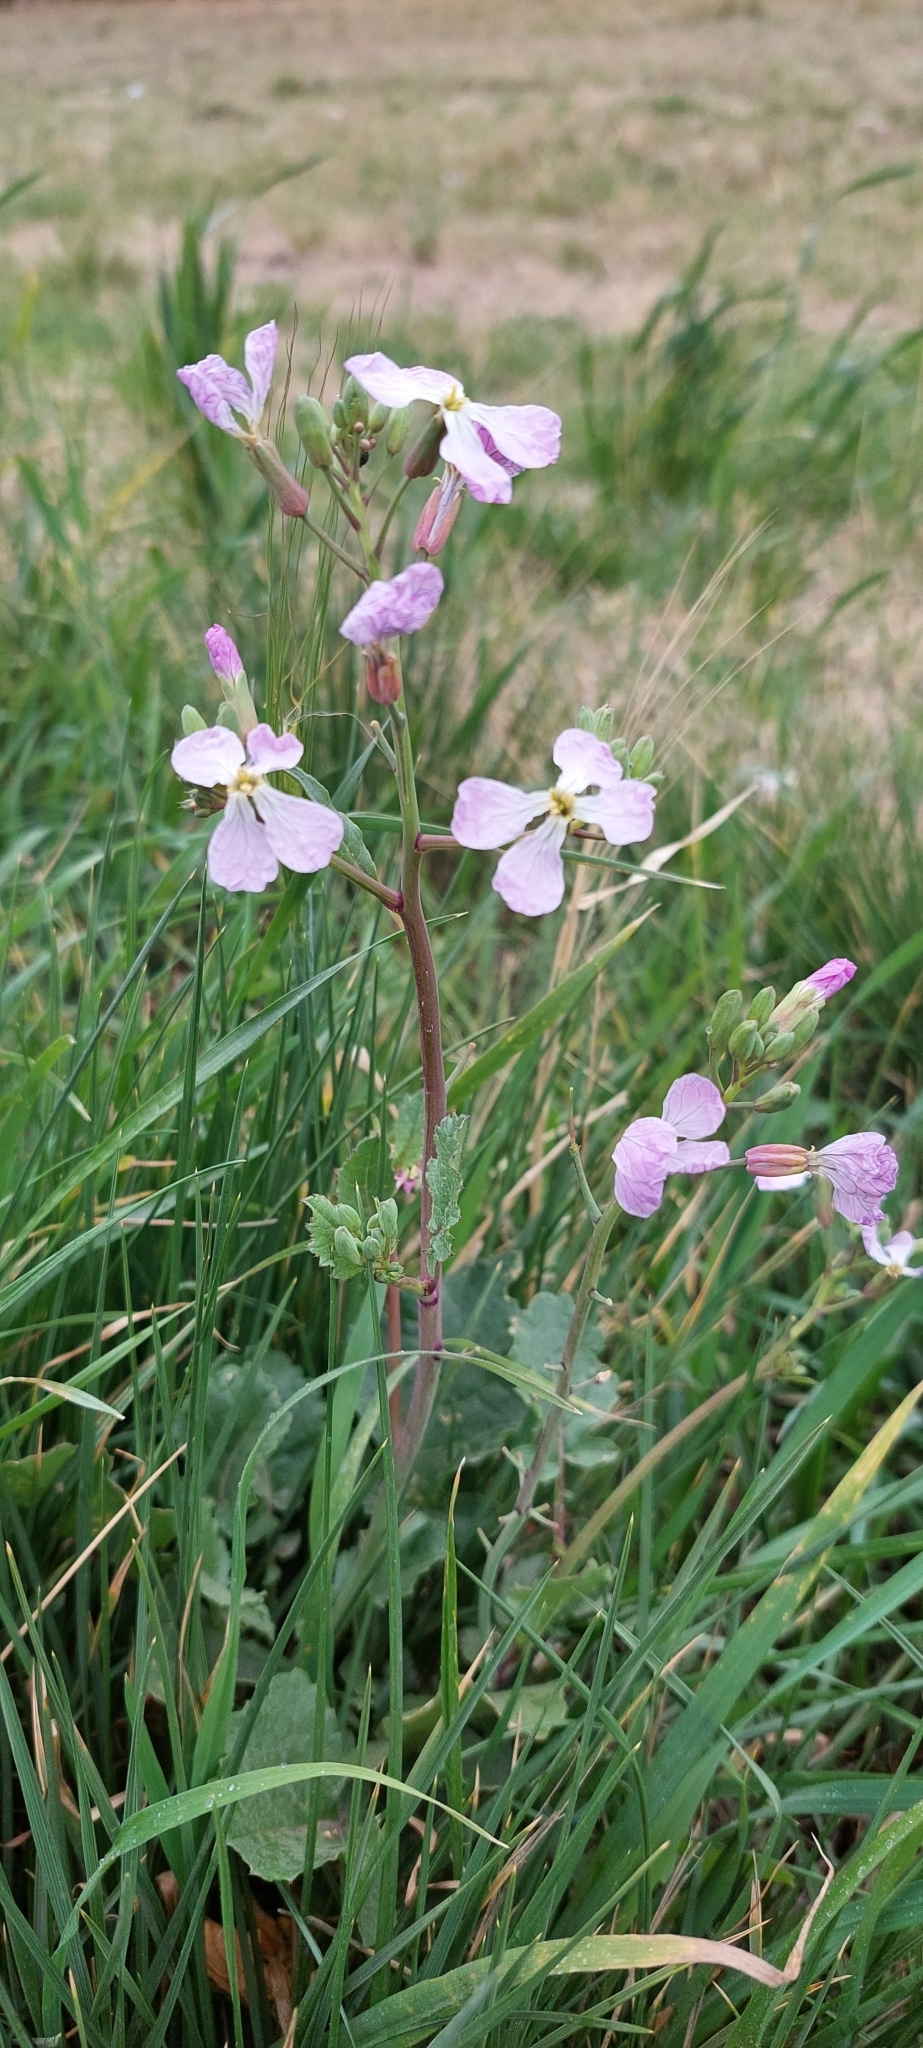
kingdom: Plantae
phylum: Tracheophyta
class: Magnoliopsida
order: Brassicales
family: Brassicaceae
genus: Raphanus
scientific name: Raphanus sativus
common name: Cultivated radish
